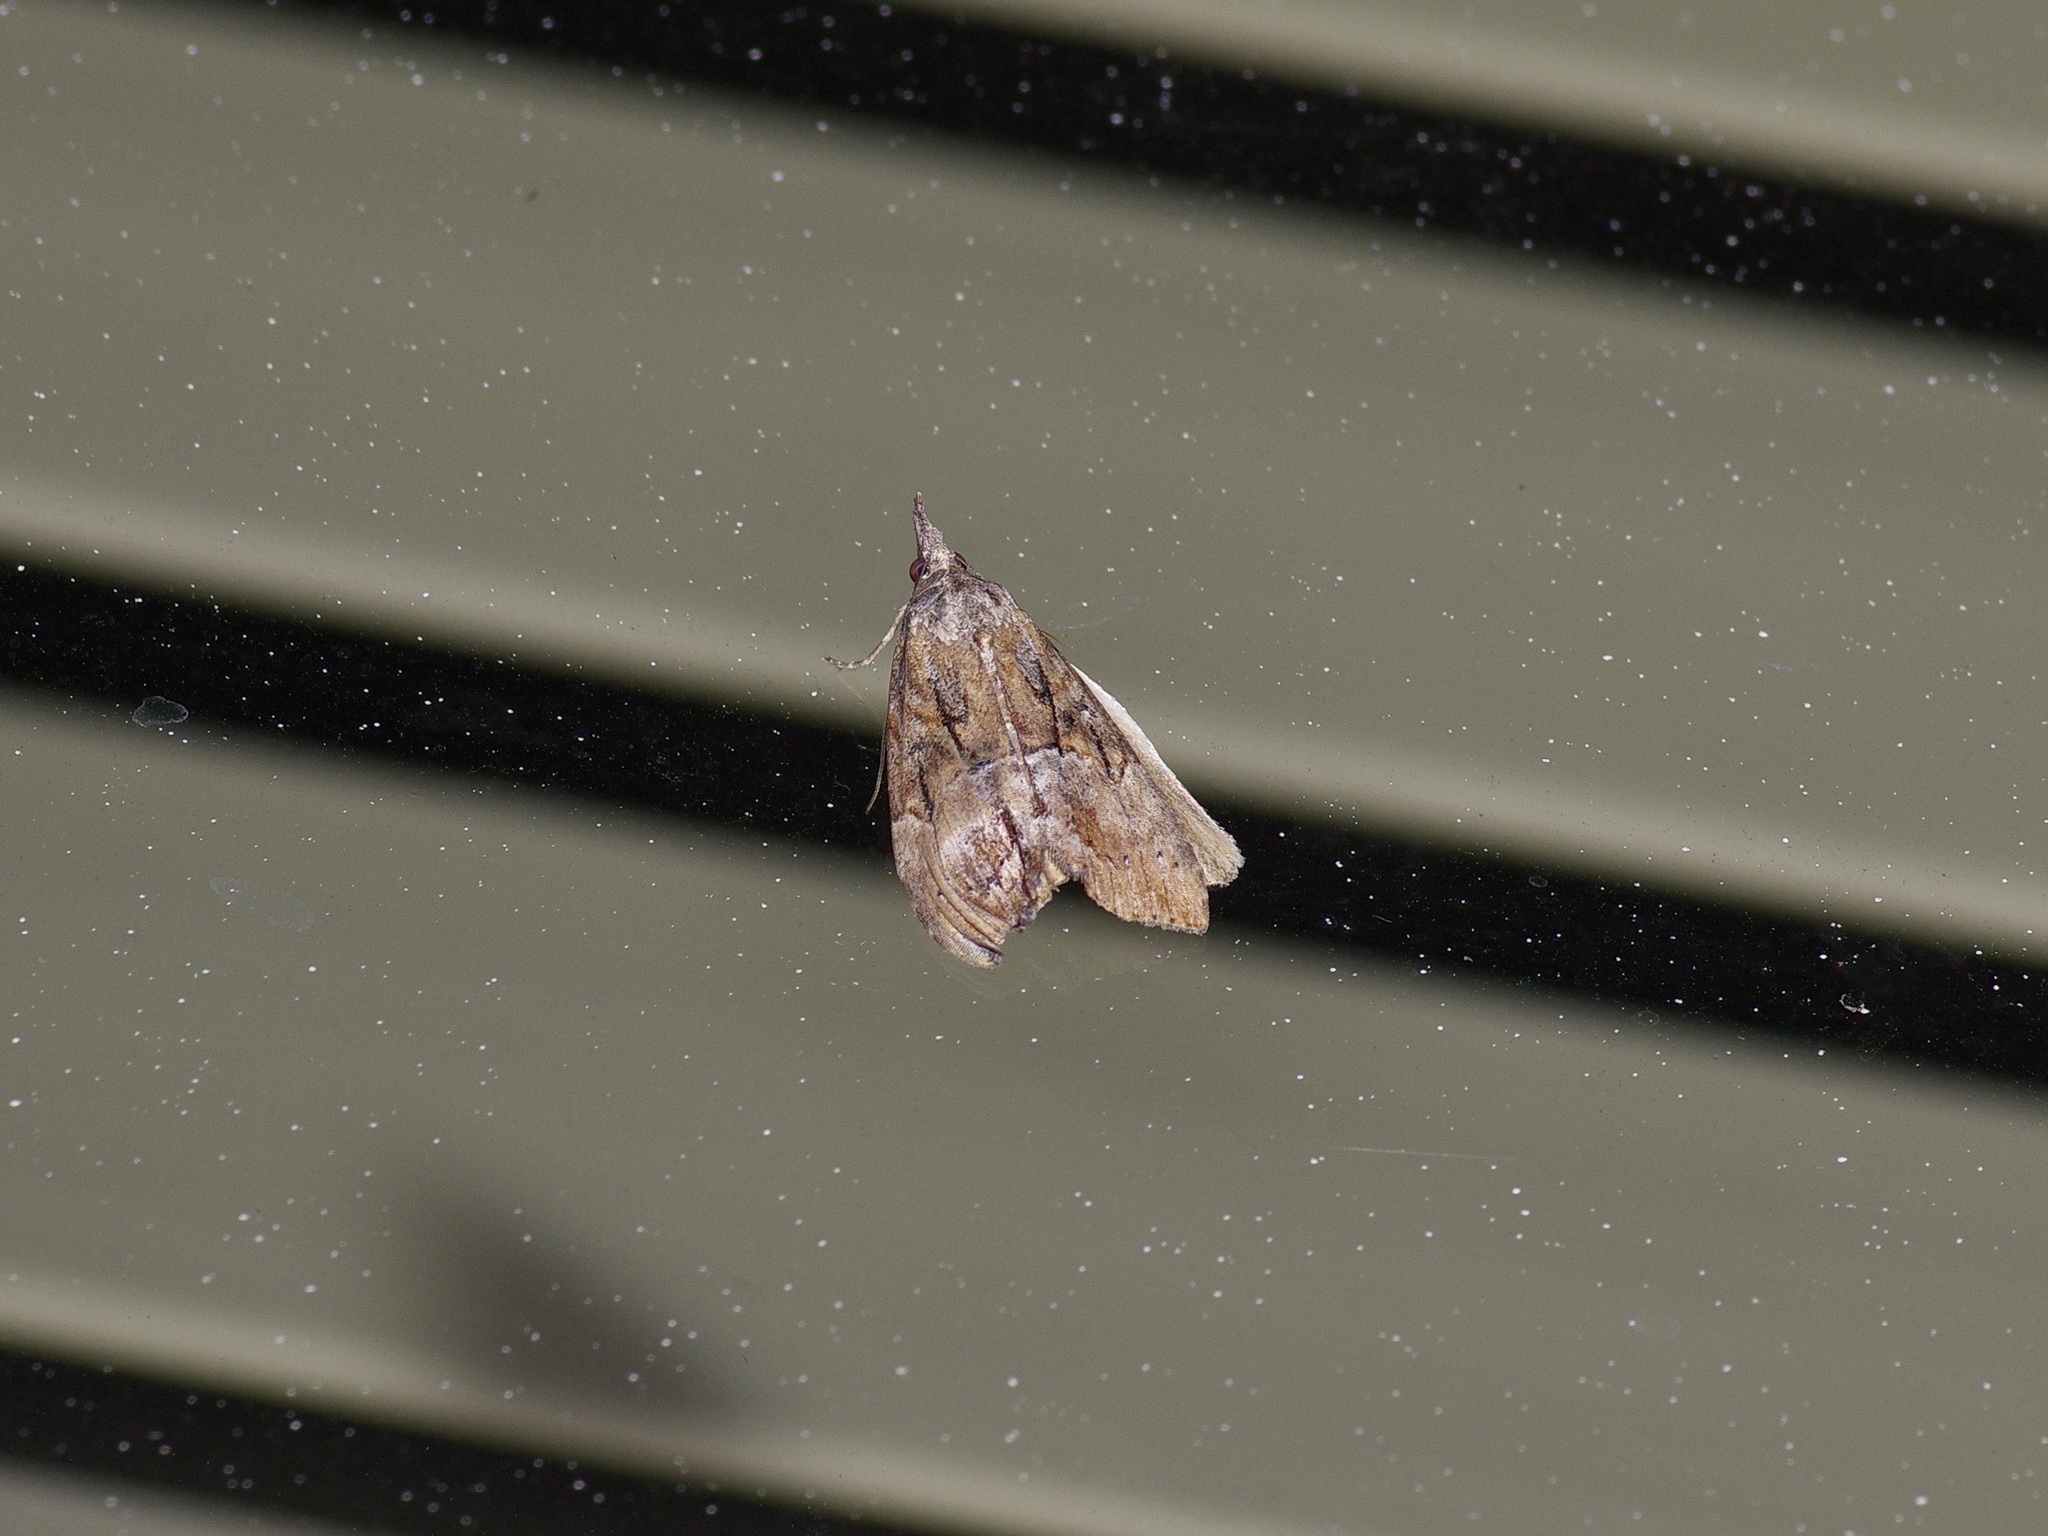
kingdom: Animalia
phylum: Arthropoda
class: Insecta
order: Lepidoptera
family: Erebidae
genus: Hypena
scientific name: Hypena scabra
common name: Green cloverworm
